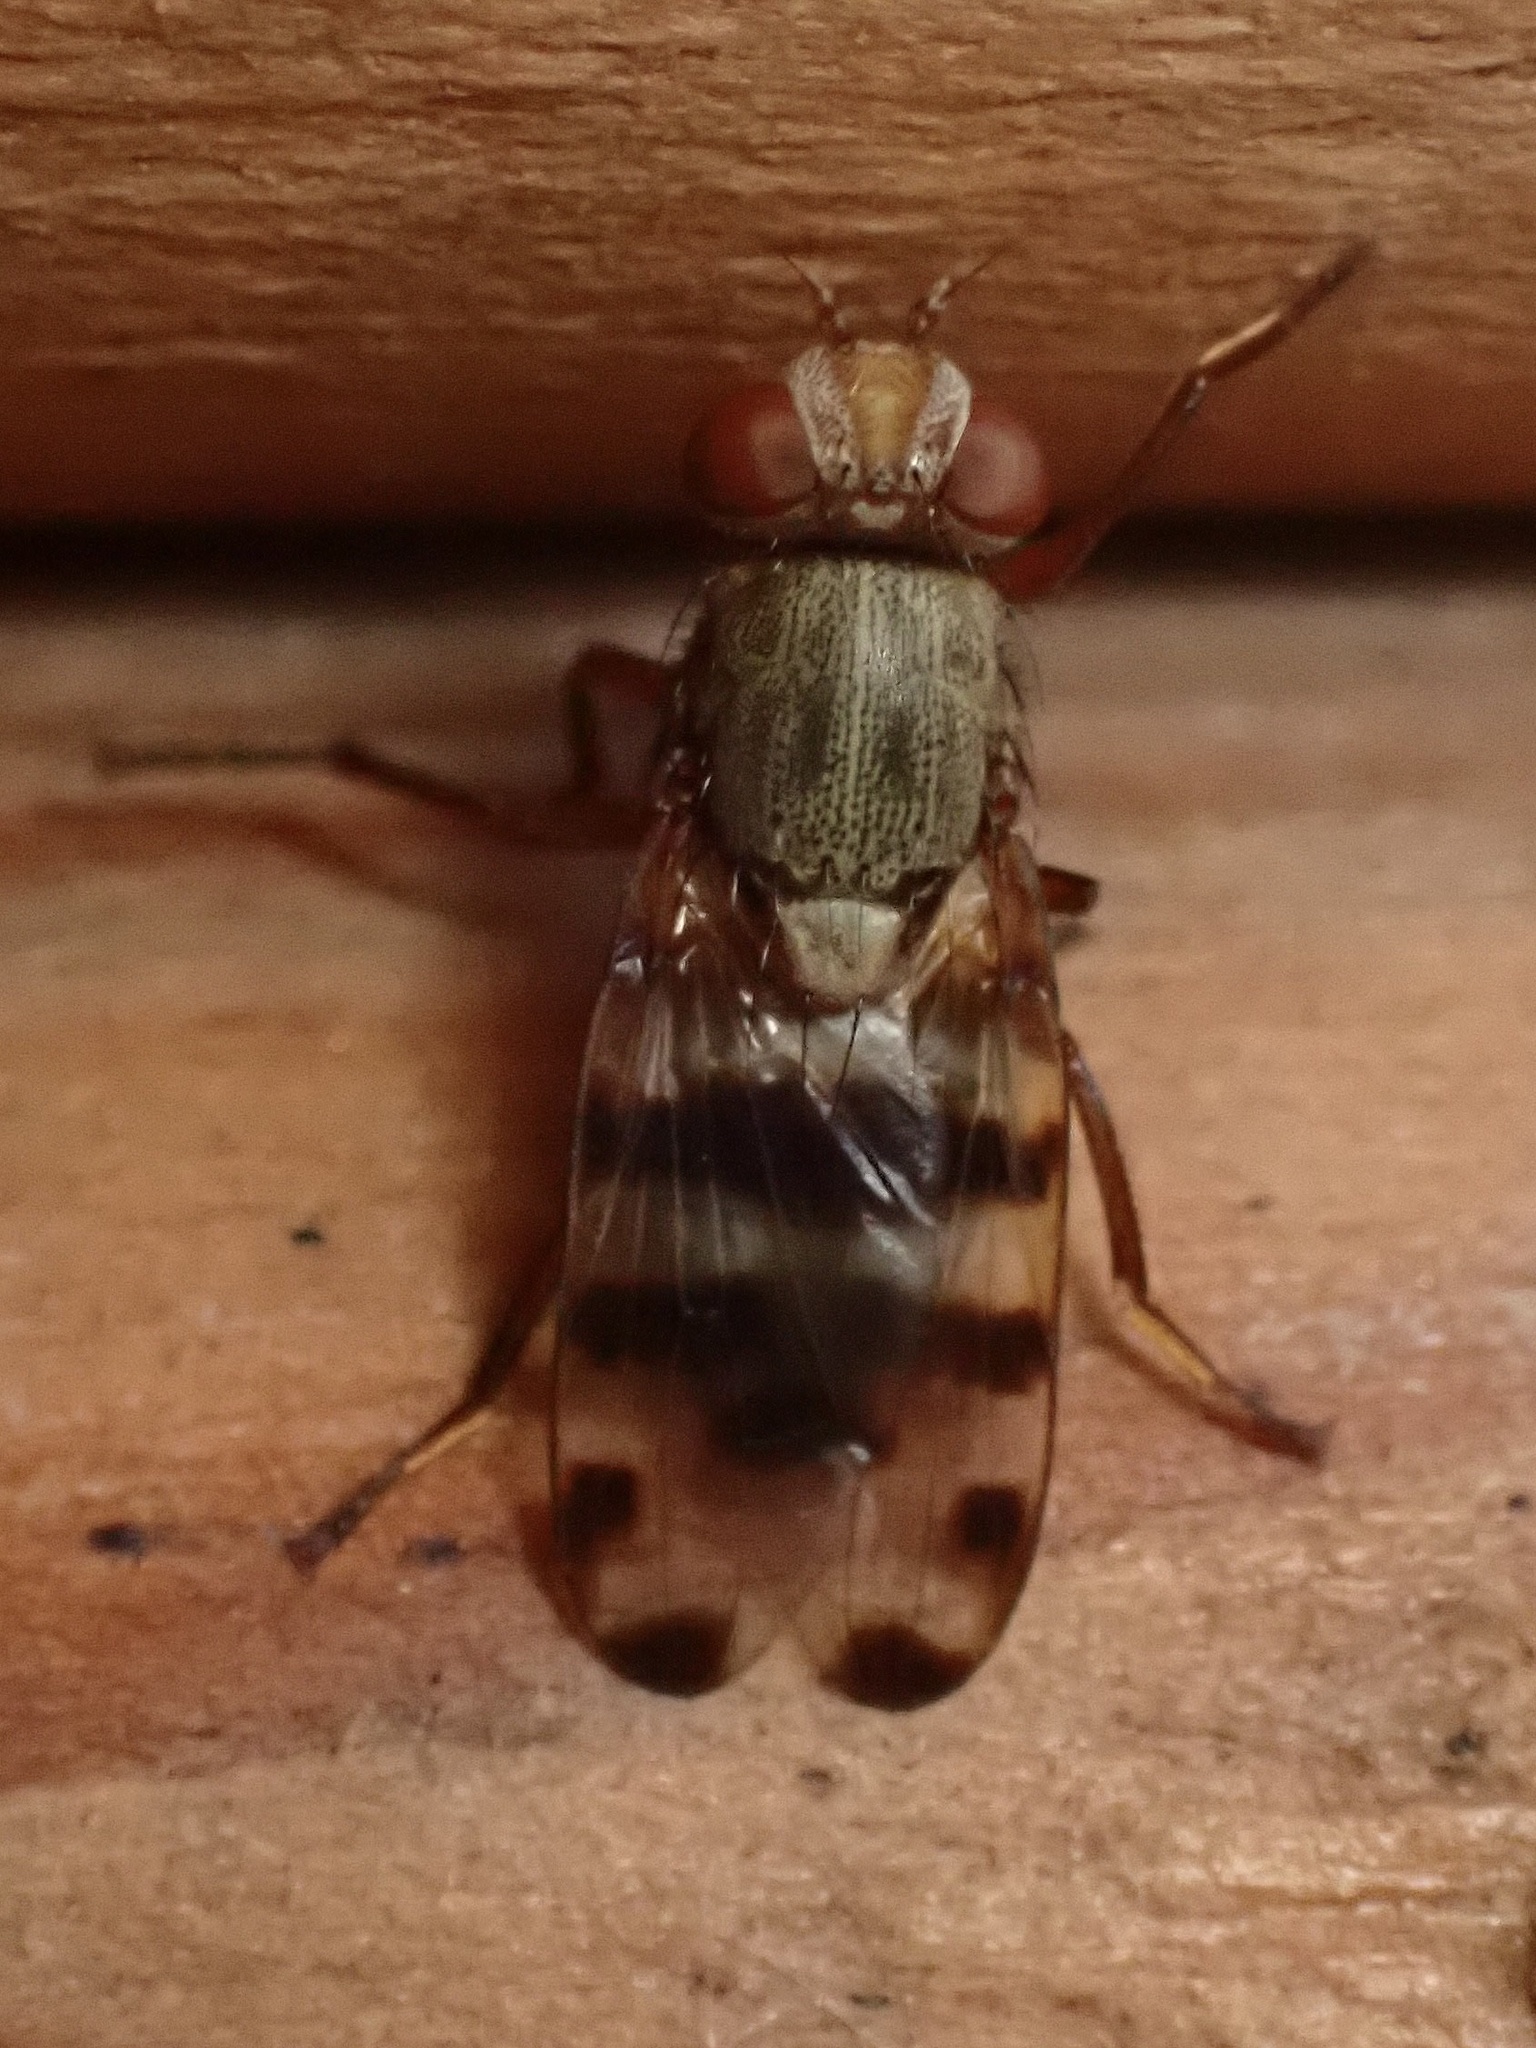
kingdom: Animalia
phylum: Arthropoda
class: Insecta
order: Diptera
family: Ulidiidae
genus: Ceroxys
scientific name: Ceroxys latiusculus
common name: Picture-winged fly
